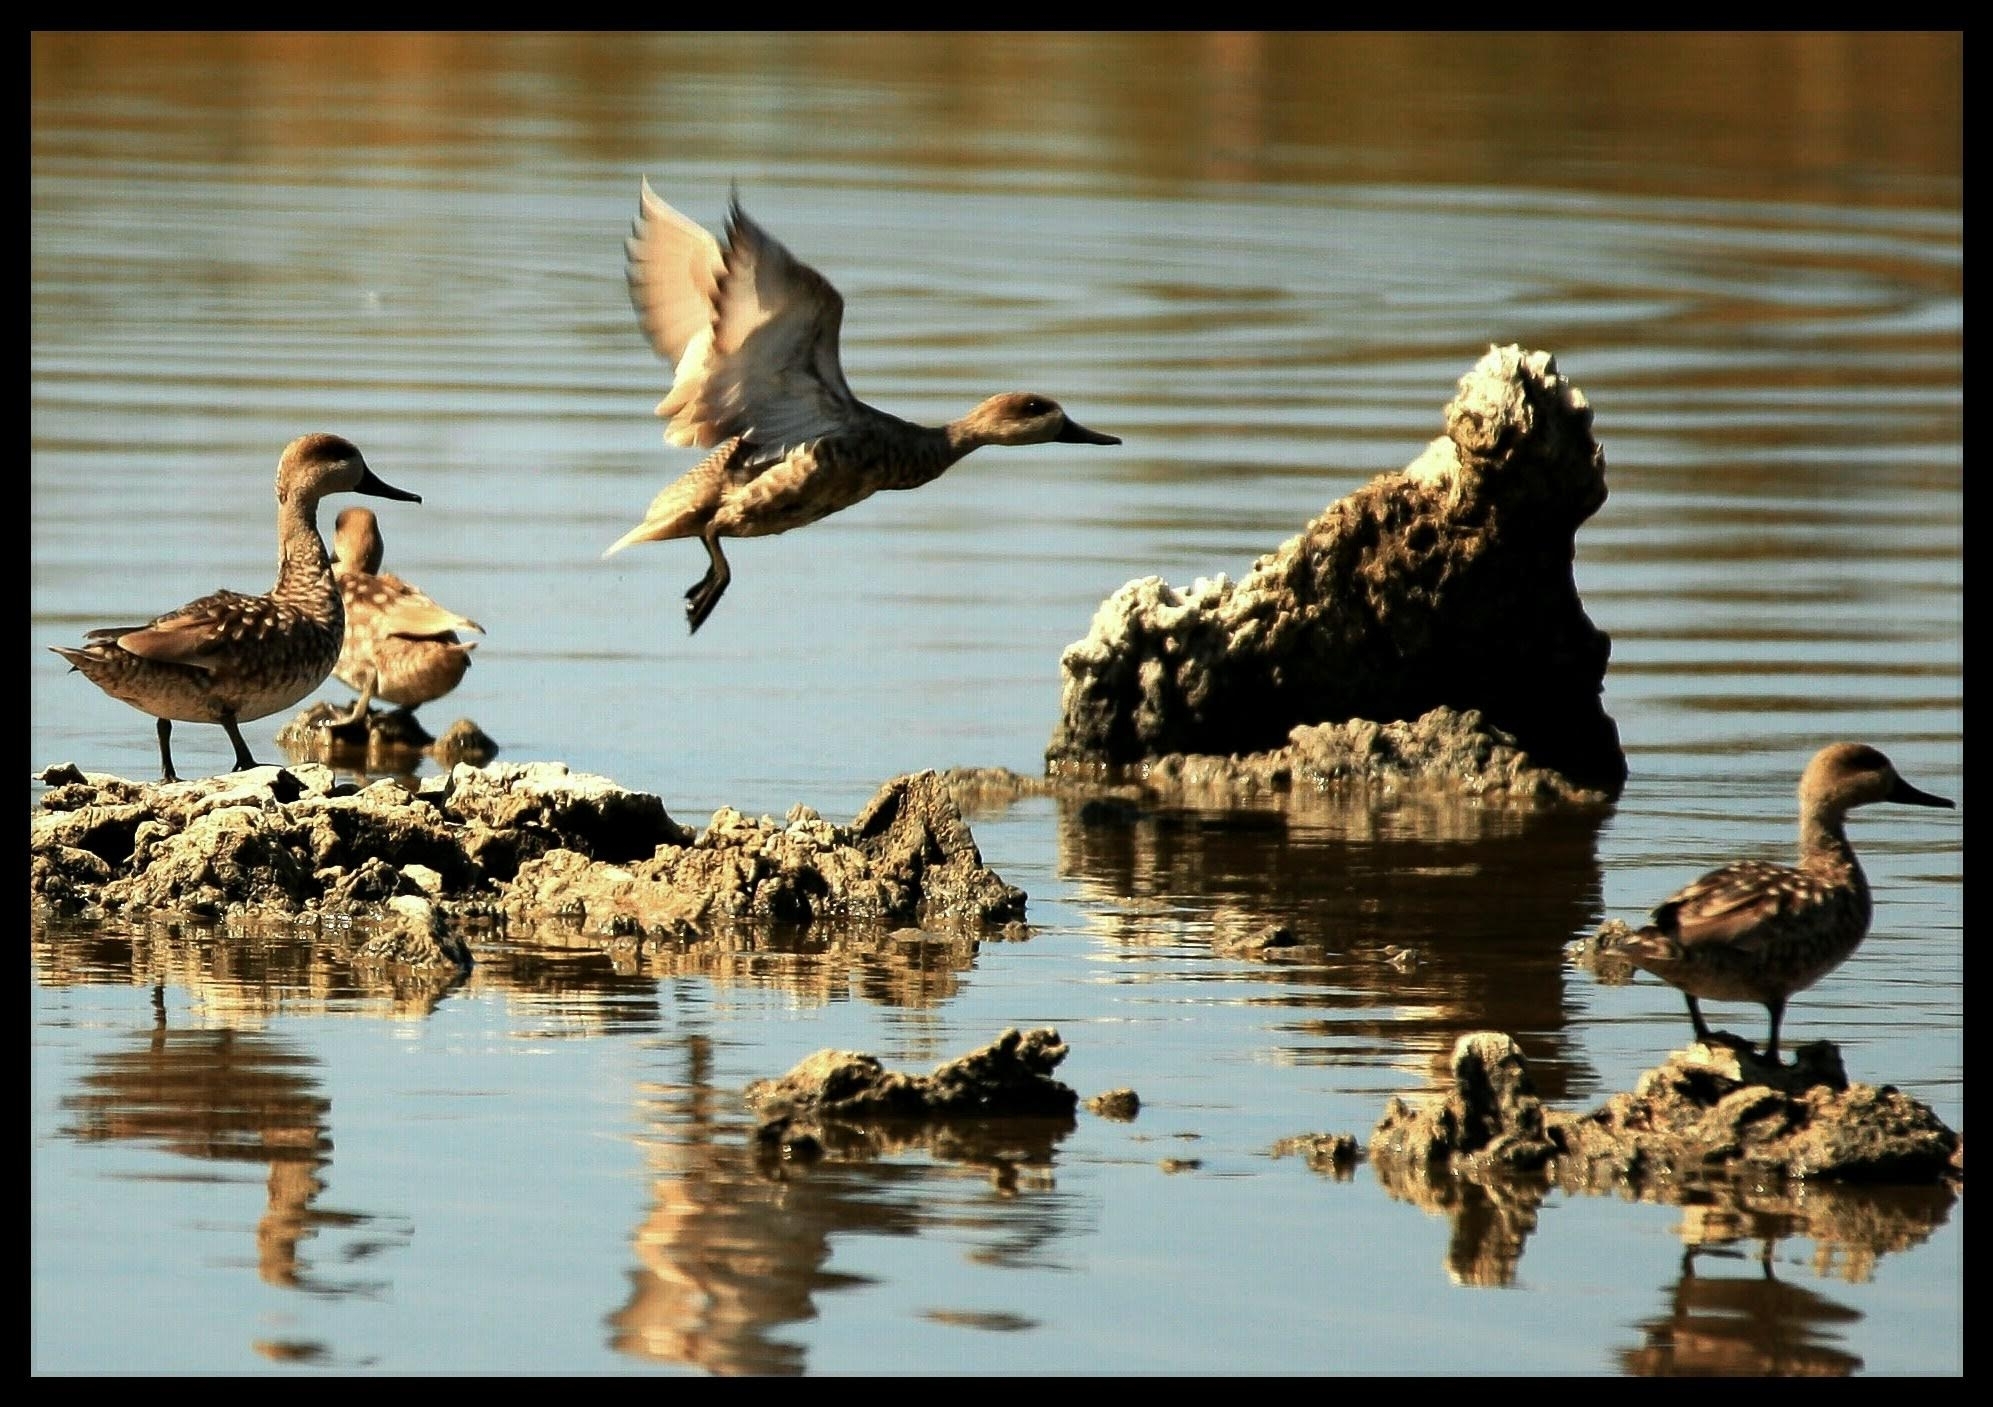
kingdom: Animalia
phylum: Chordata
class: Aves
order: Anseriformes
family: Anatidae
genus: Marmaronetta
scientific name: Marmaronetta angustirostris
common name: Marbled duck
